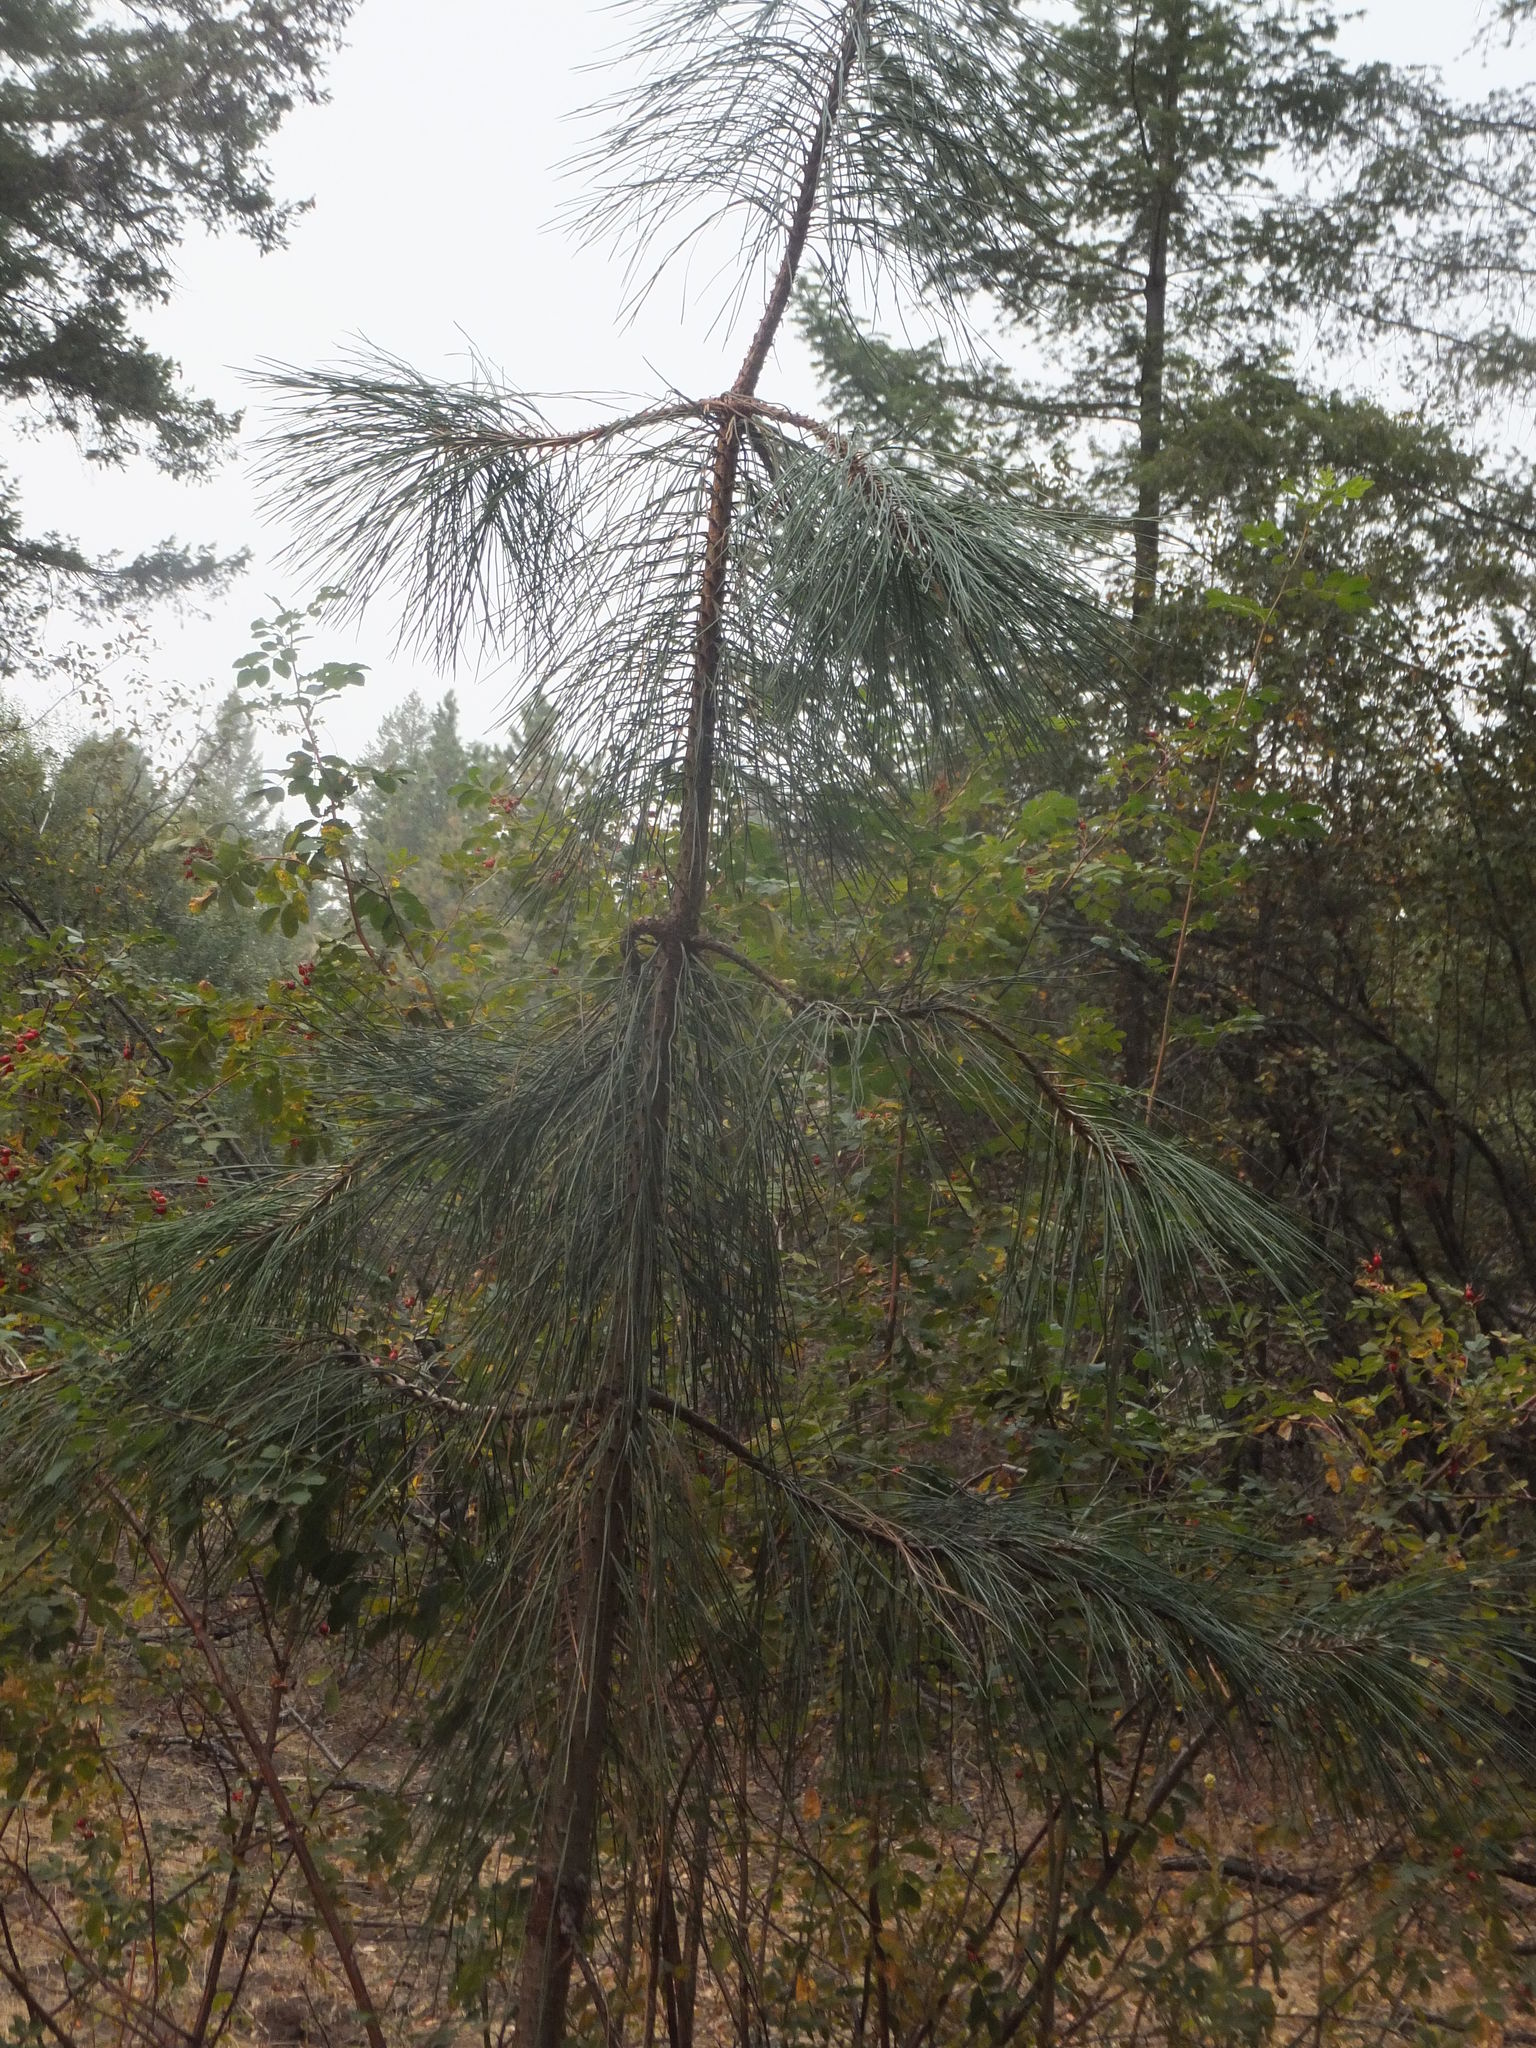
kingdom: Plantae
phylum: Tracheophyta
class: Pinopsida
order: Pinales
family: Pinaceae
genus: Pinus
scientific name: Pinus ponderosa
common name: Western yellow-pine
